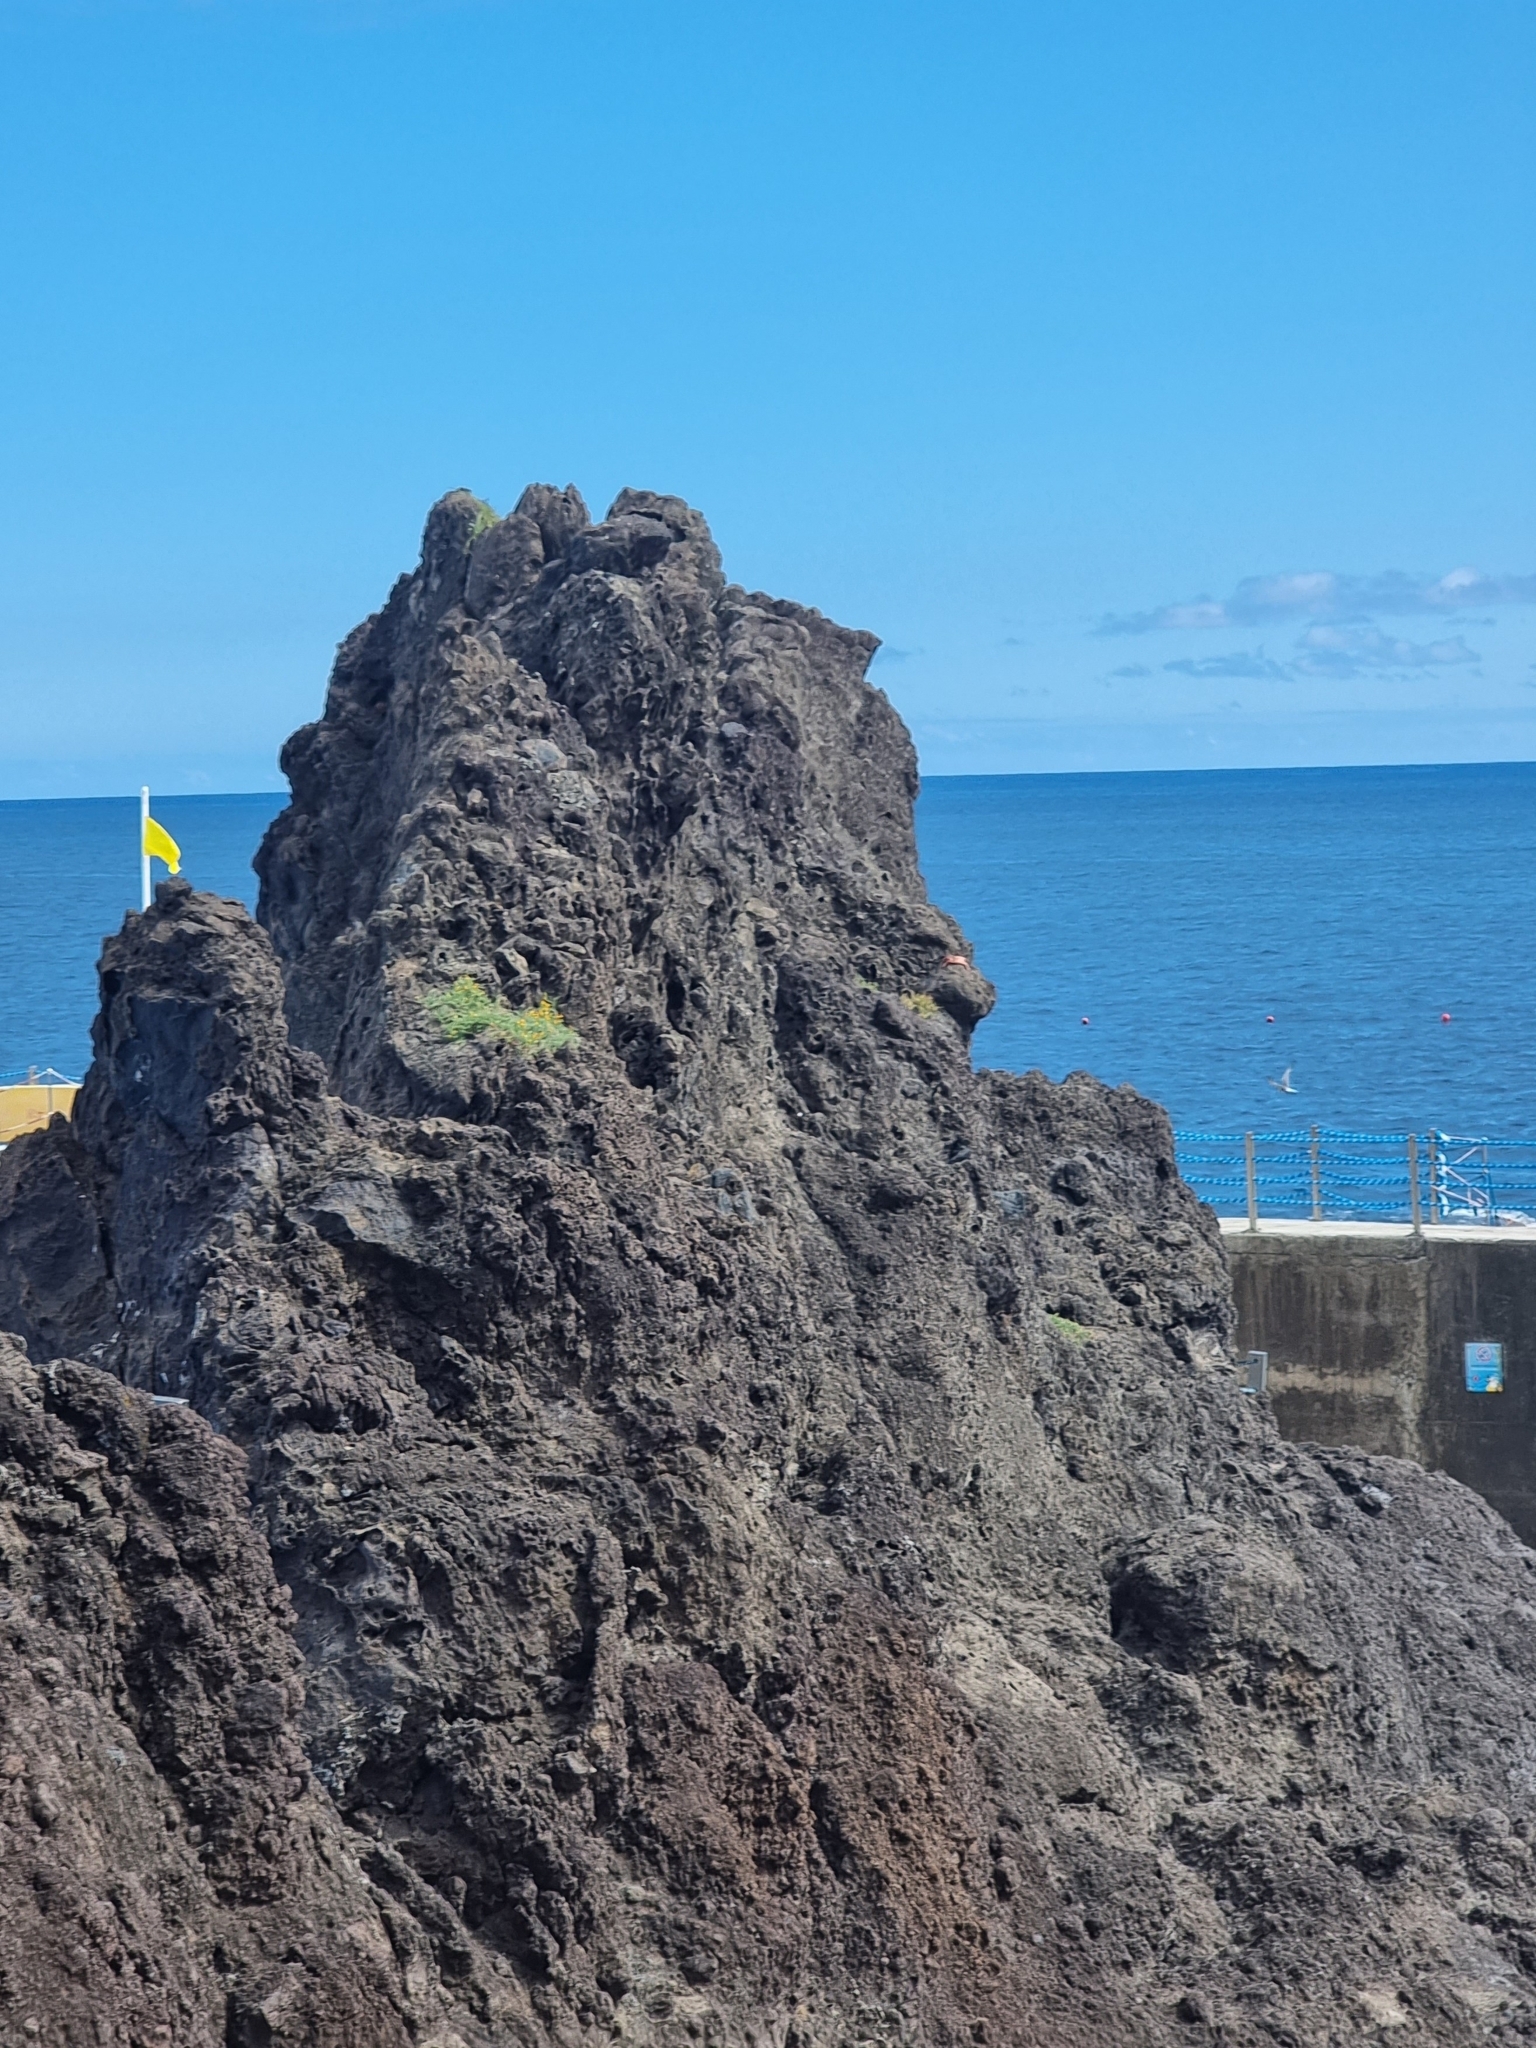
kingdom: Plantae
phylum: Tracheophyta
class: Magnoliopsida
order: Fabales
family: Fabaceae
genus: Lotus
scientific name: Lotus glaucus
